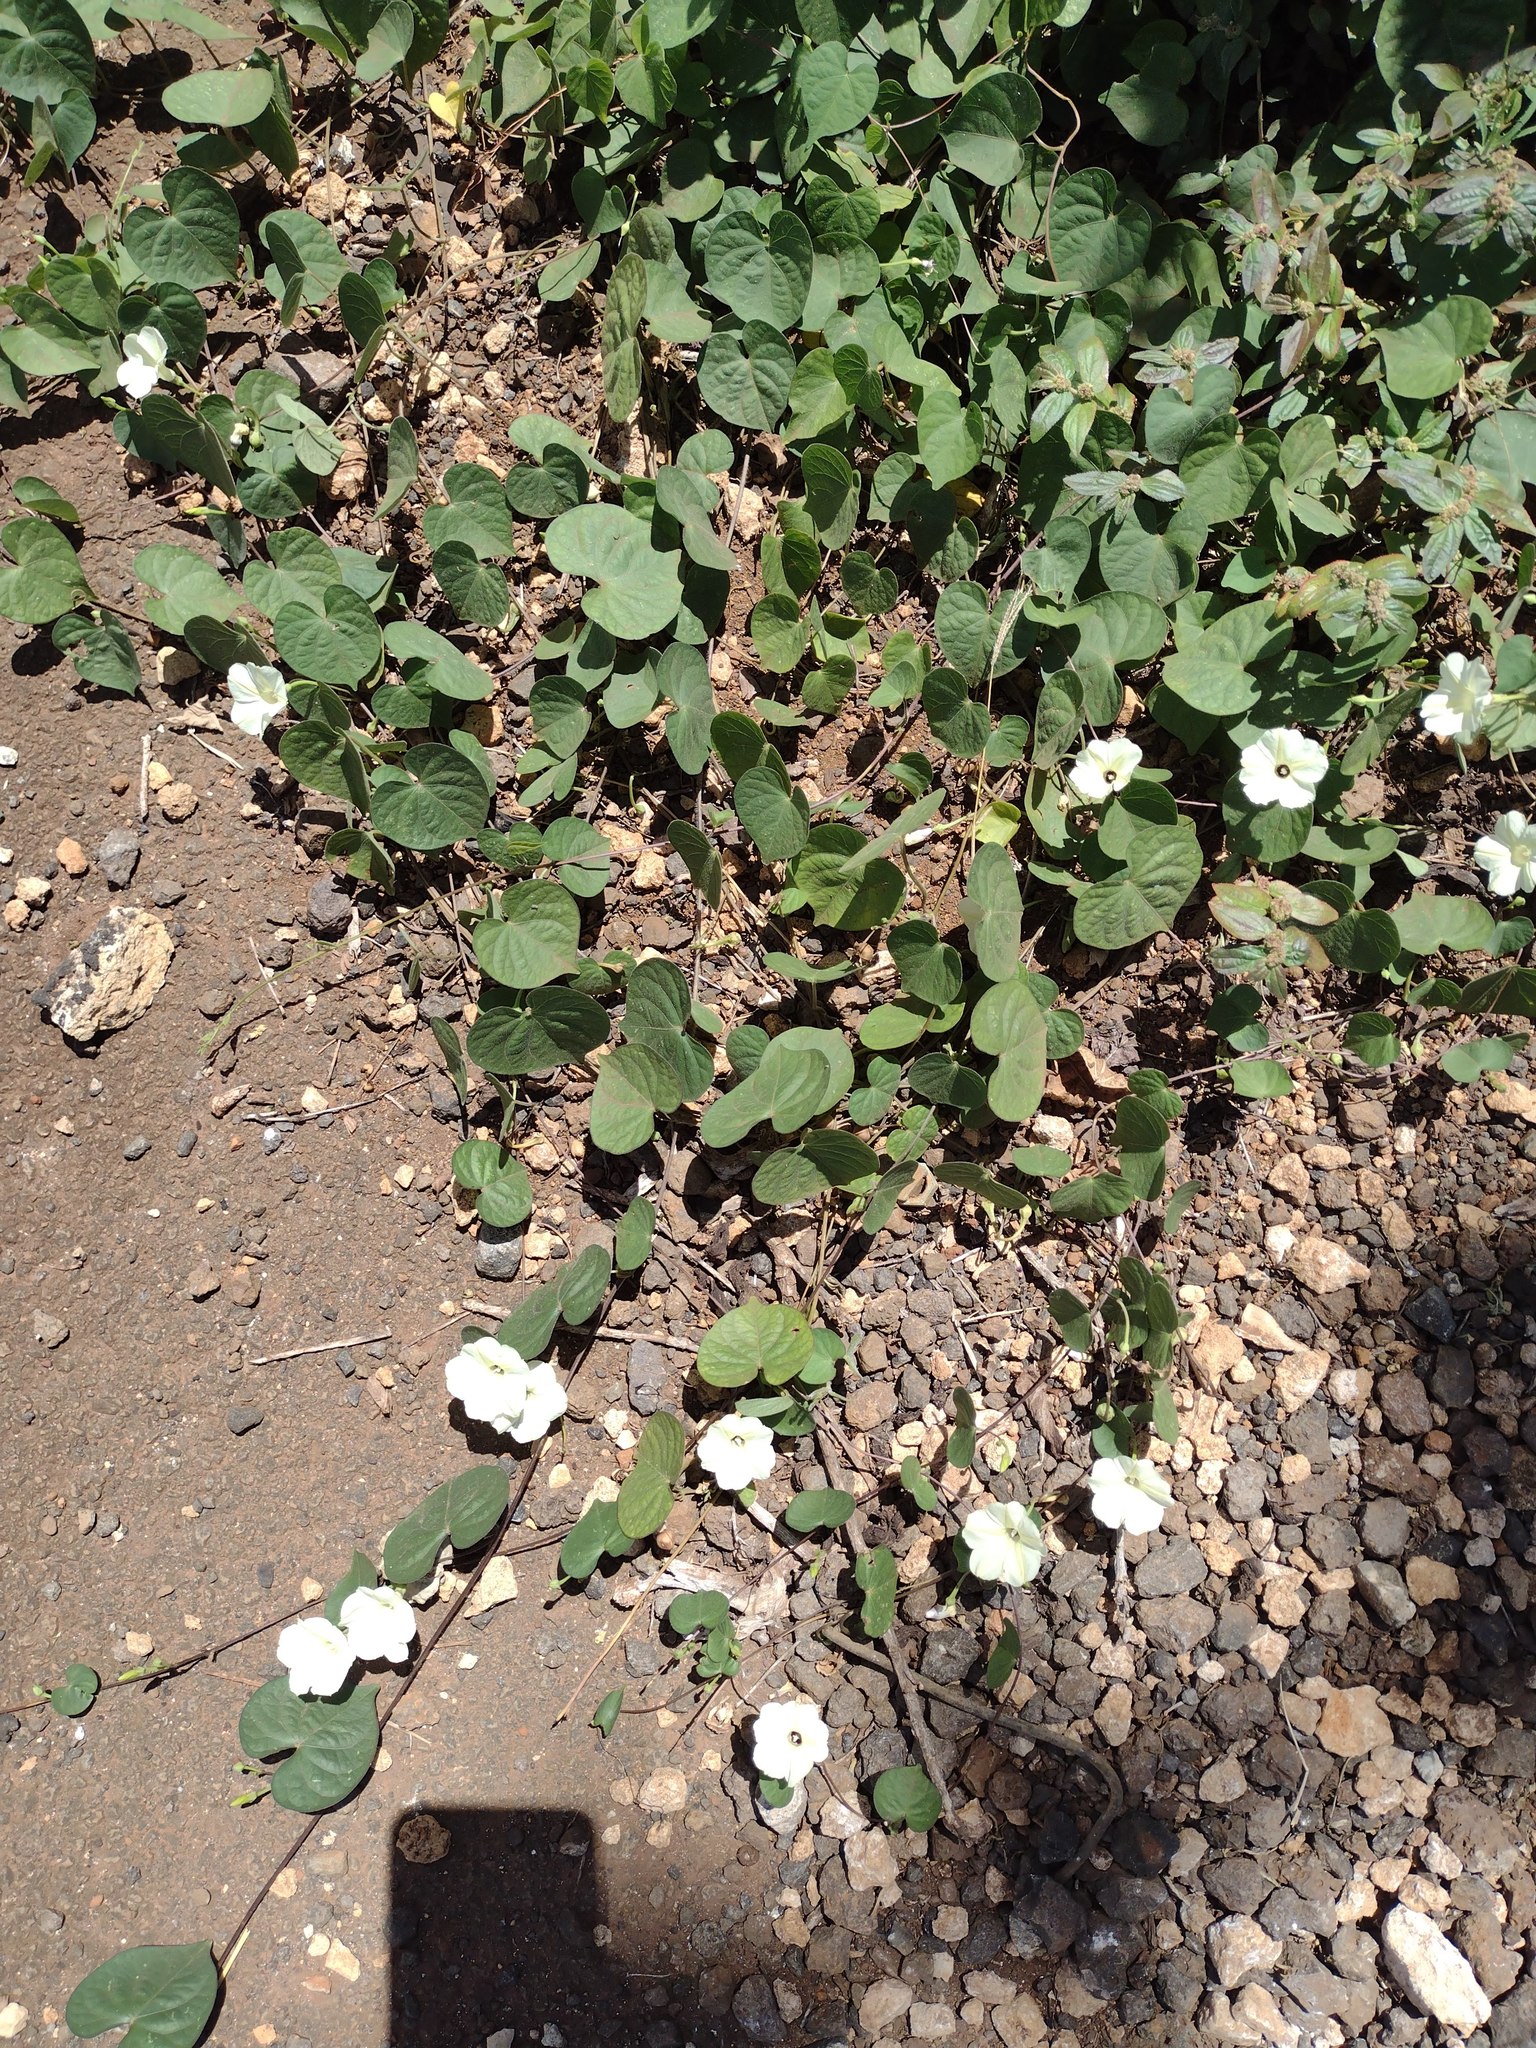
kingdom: Plantae
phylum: Tracheophyta
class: Magnoliopsida
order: Solanales
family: Convolvulaceae
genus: Ipomoea
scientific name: Ipomoea obscura
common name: Obscure morning-glory
